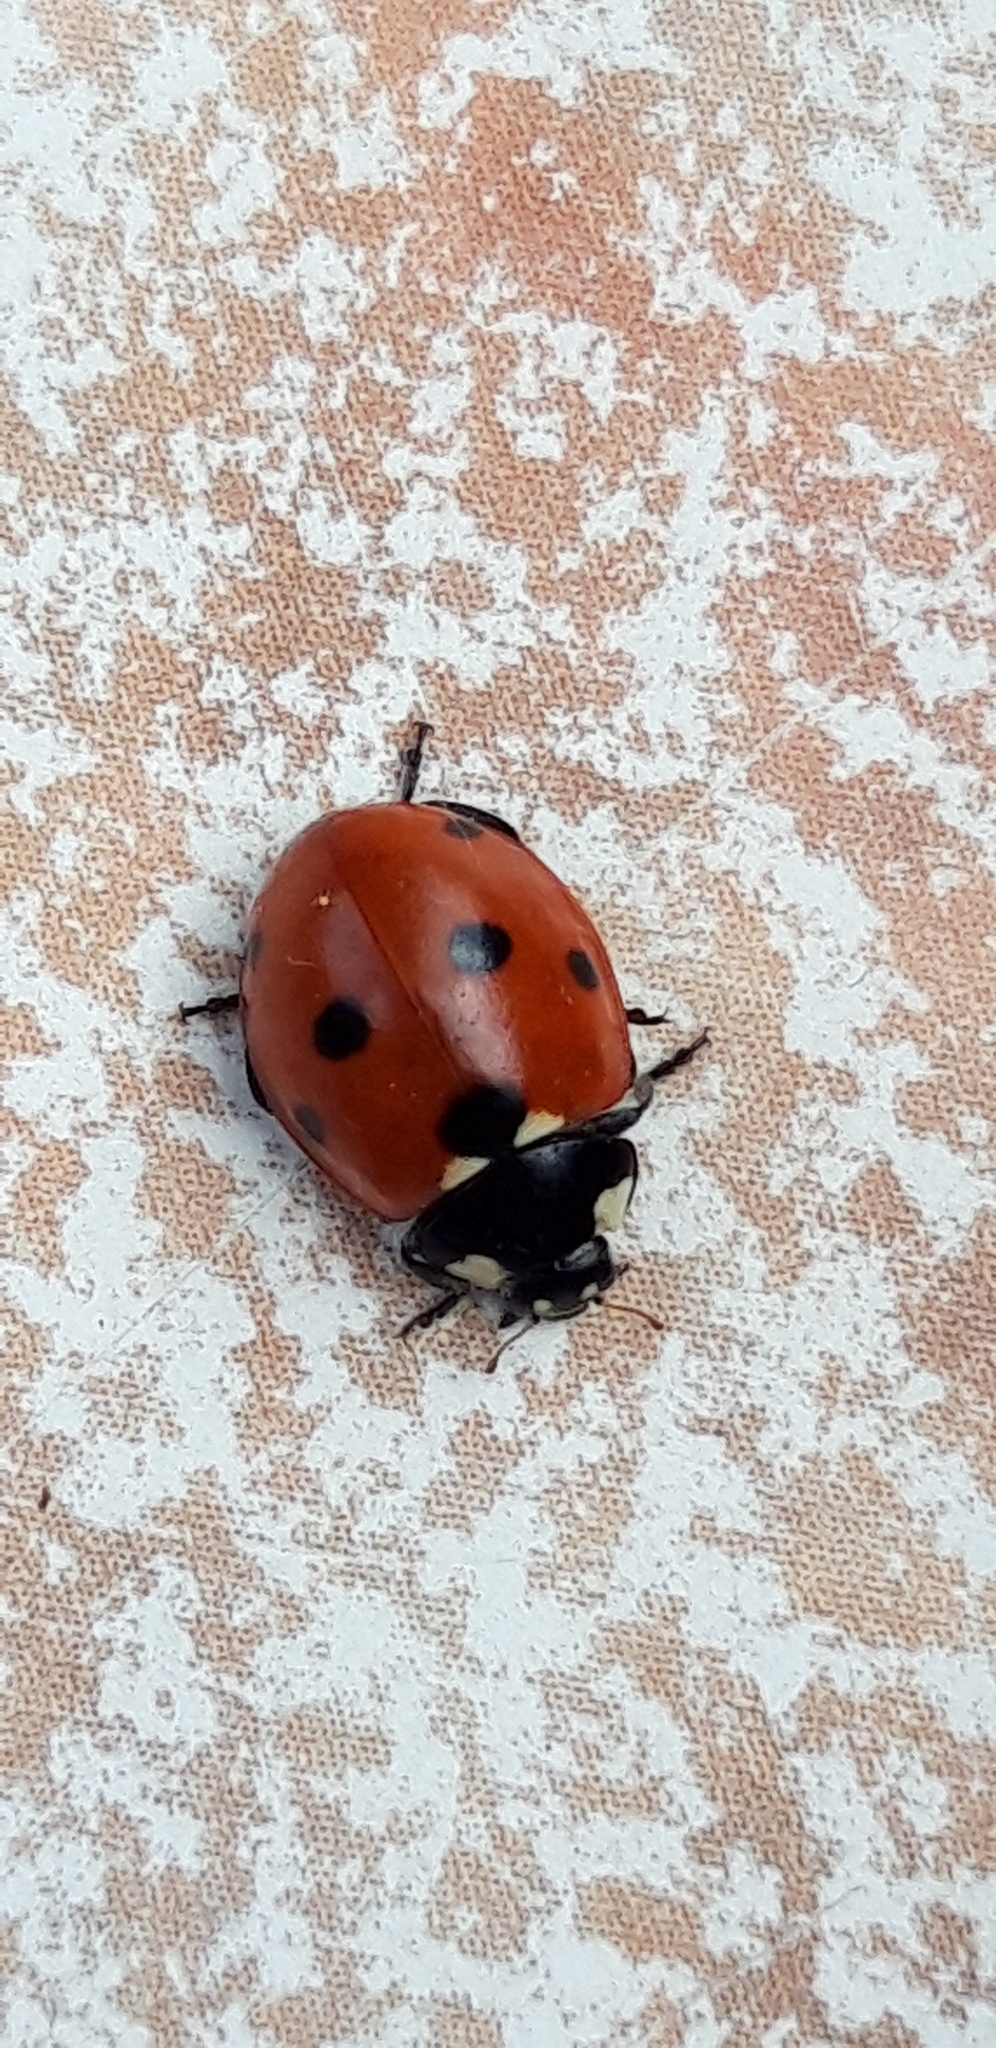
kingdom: Animalia
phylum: Arthropoda
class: Insecta
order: Coleoptera
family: Coccinellidae
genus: Coccinella
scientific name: Coccinella septempunctata
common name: Sevenspotted lady beetle
